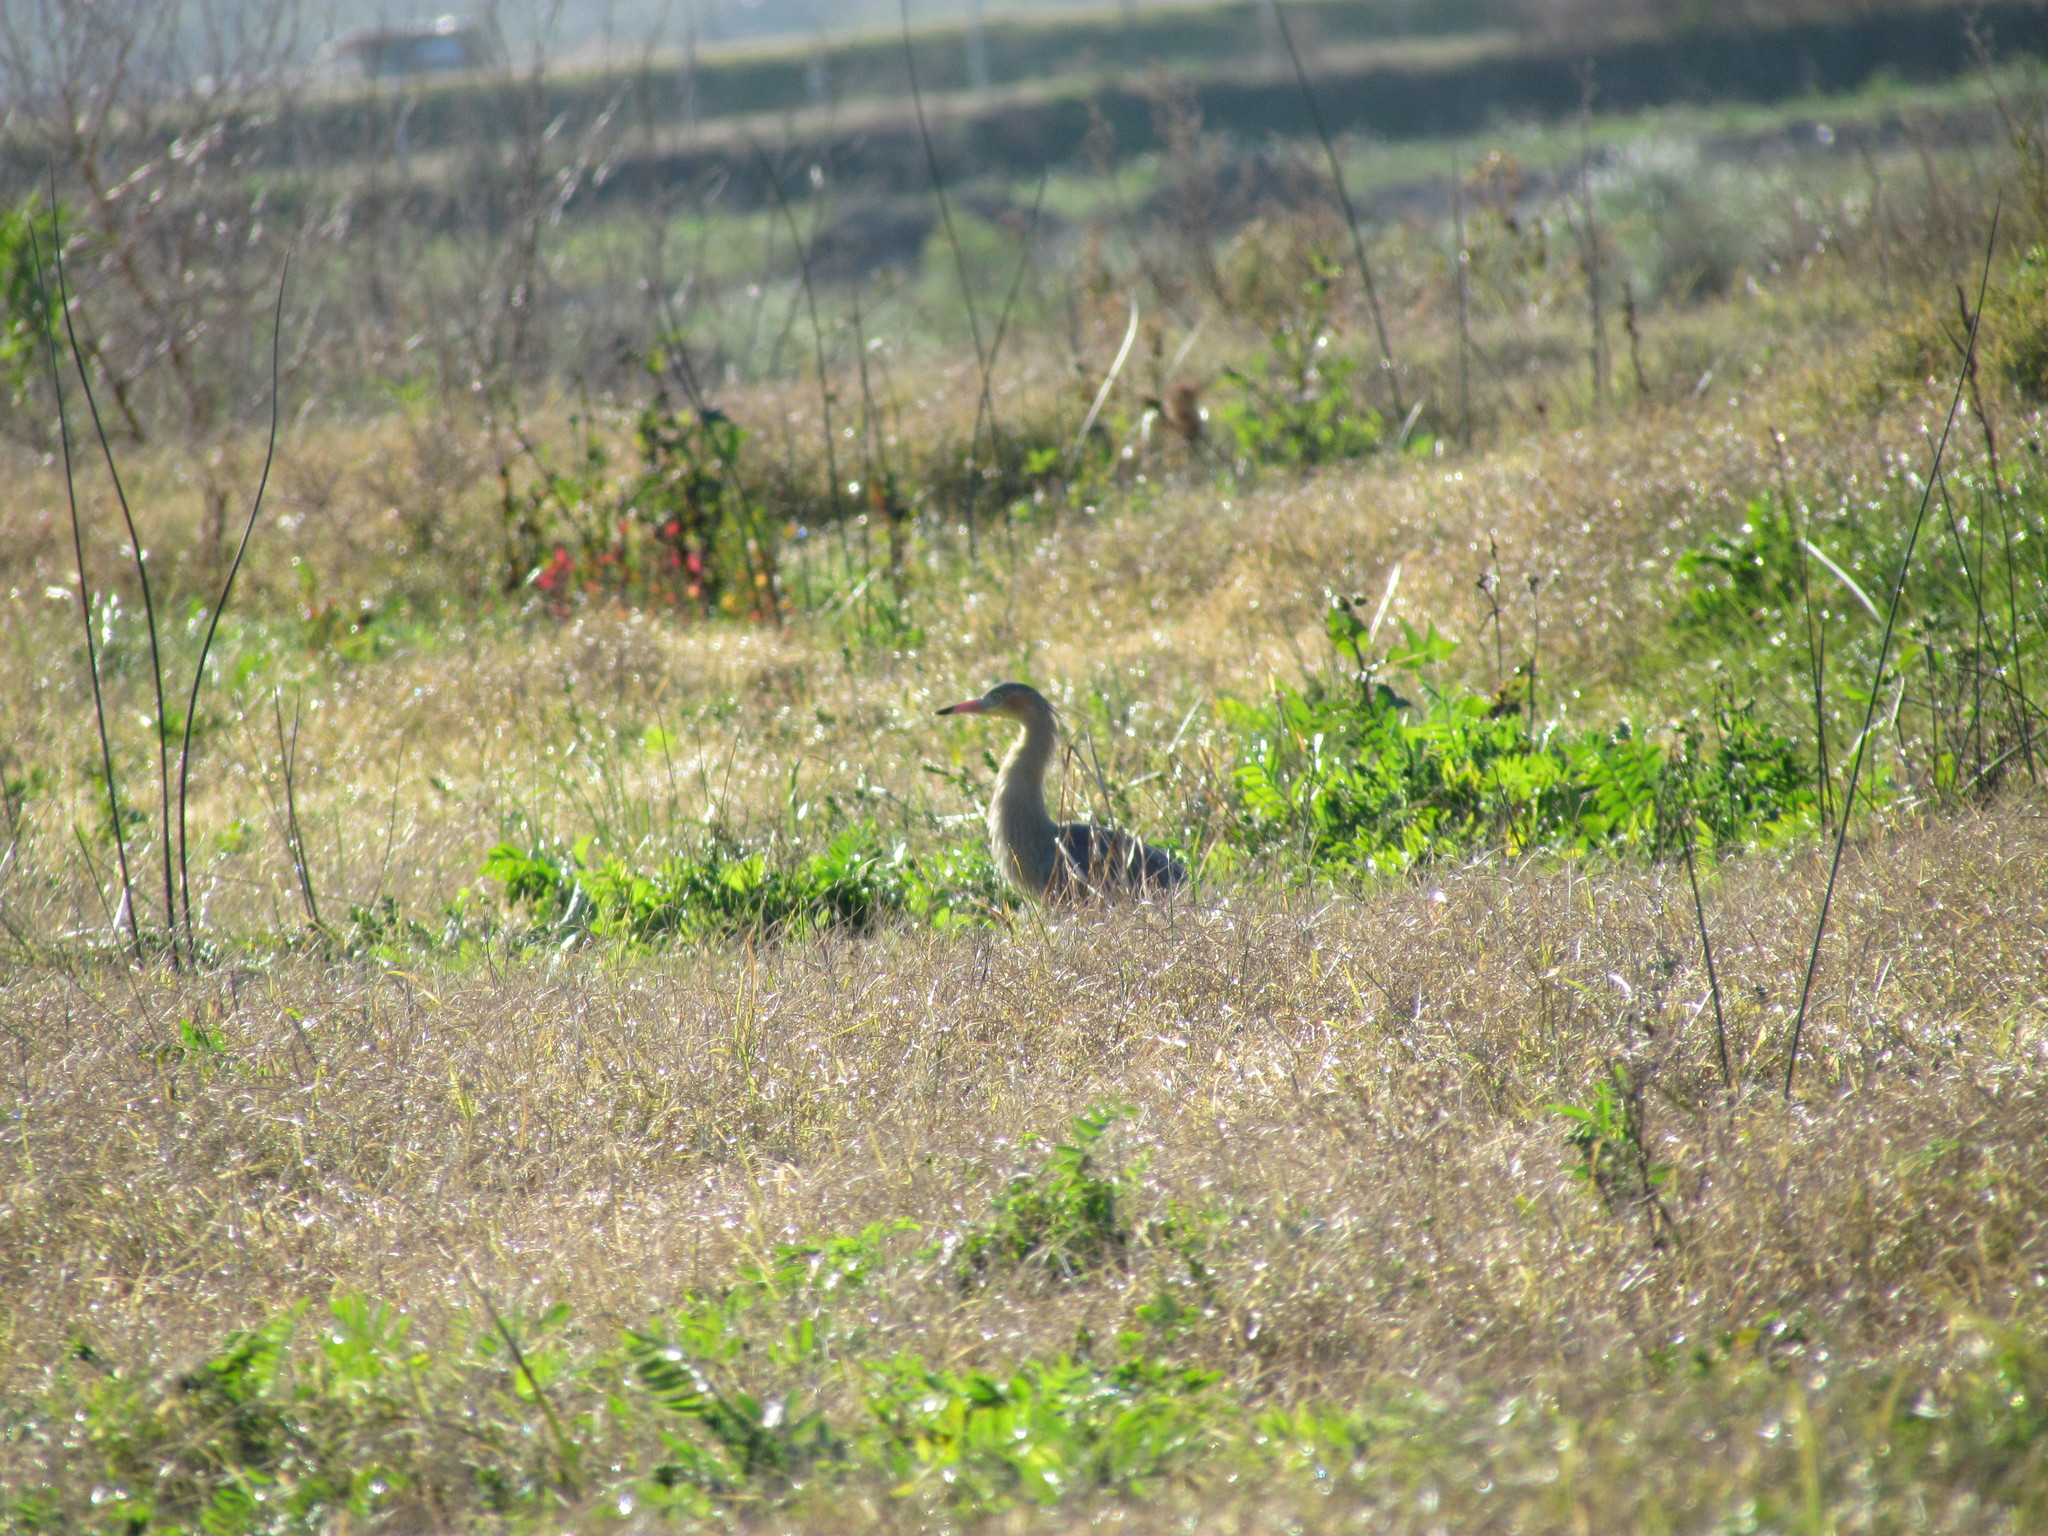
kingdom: Animalia
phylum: Chordata
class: Aves
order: Pelecaniformes
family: Ardeidae
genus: Syrigma
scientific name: Syrigma sibilatrix
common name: Whistling heron
